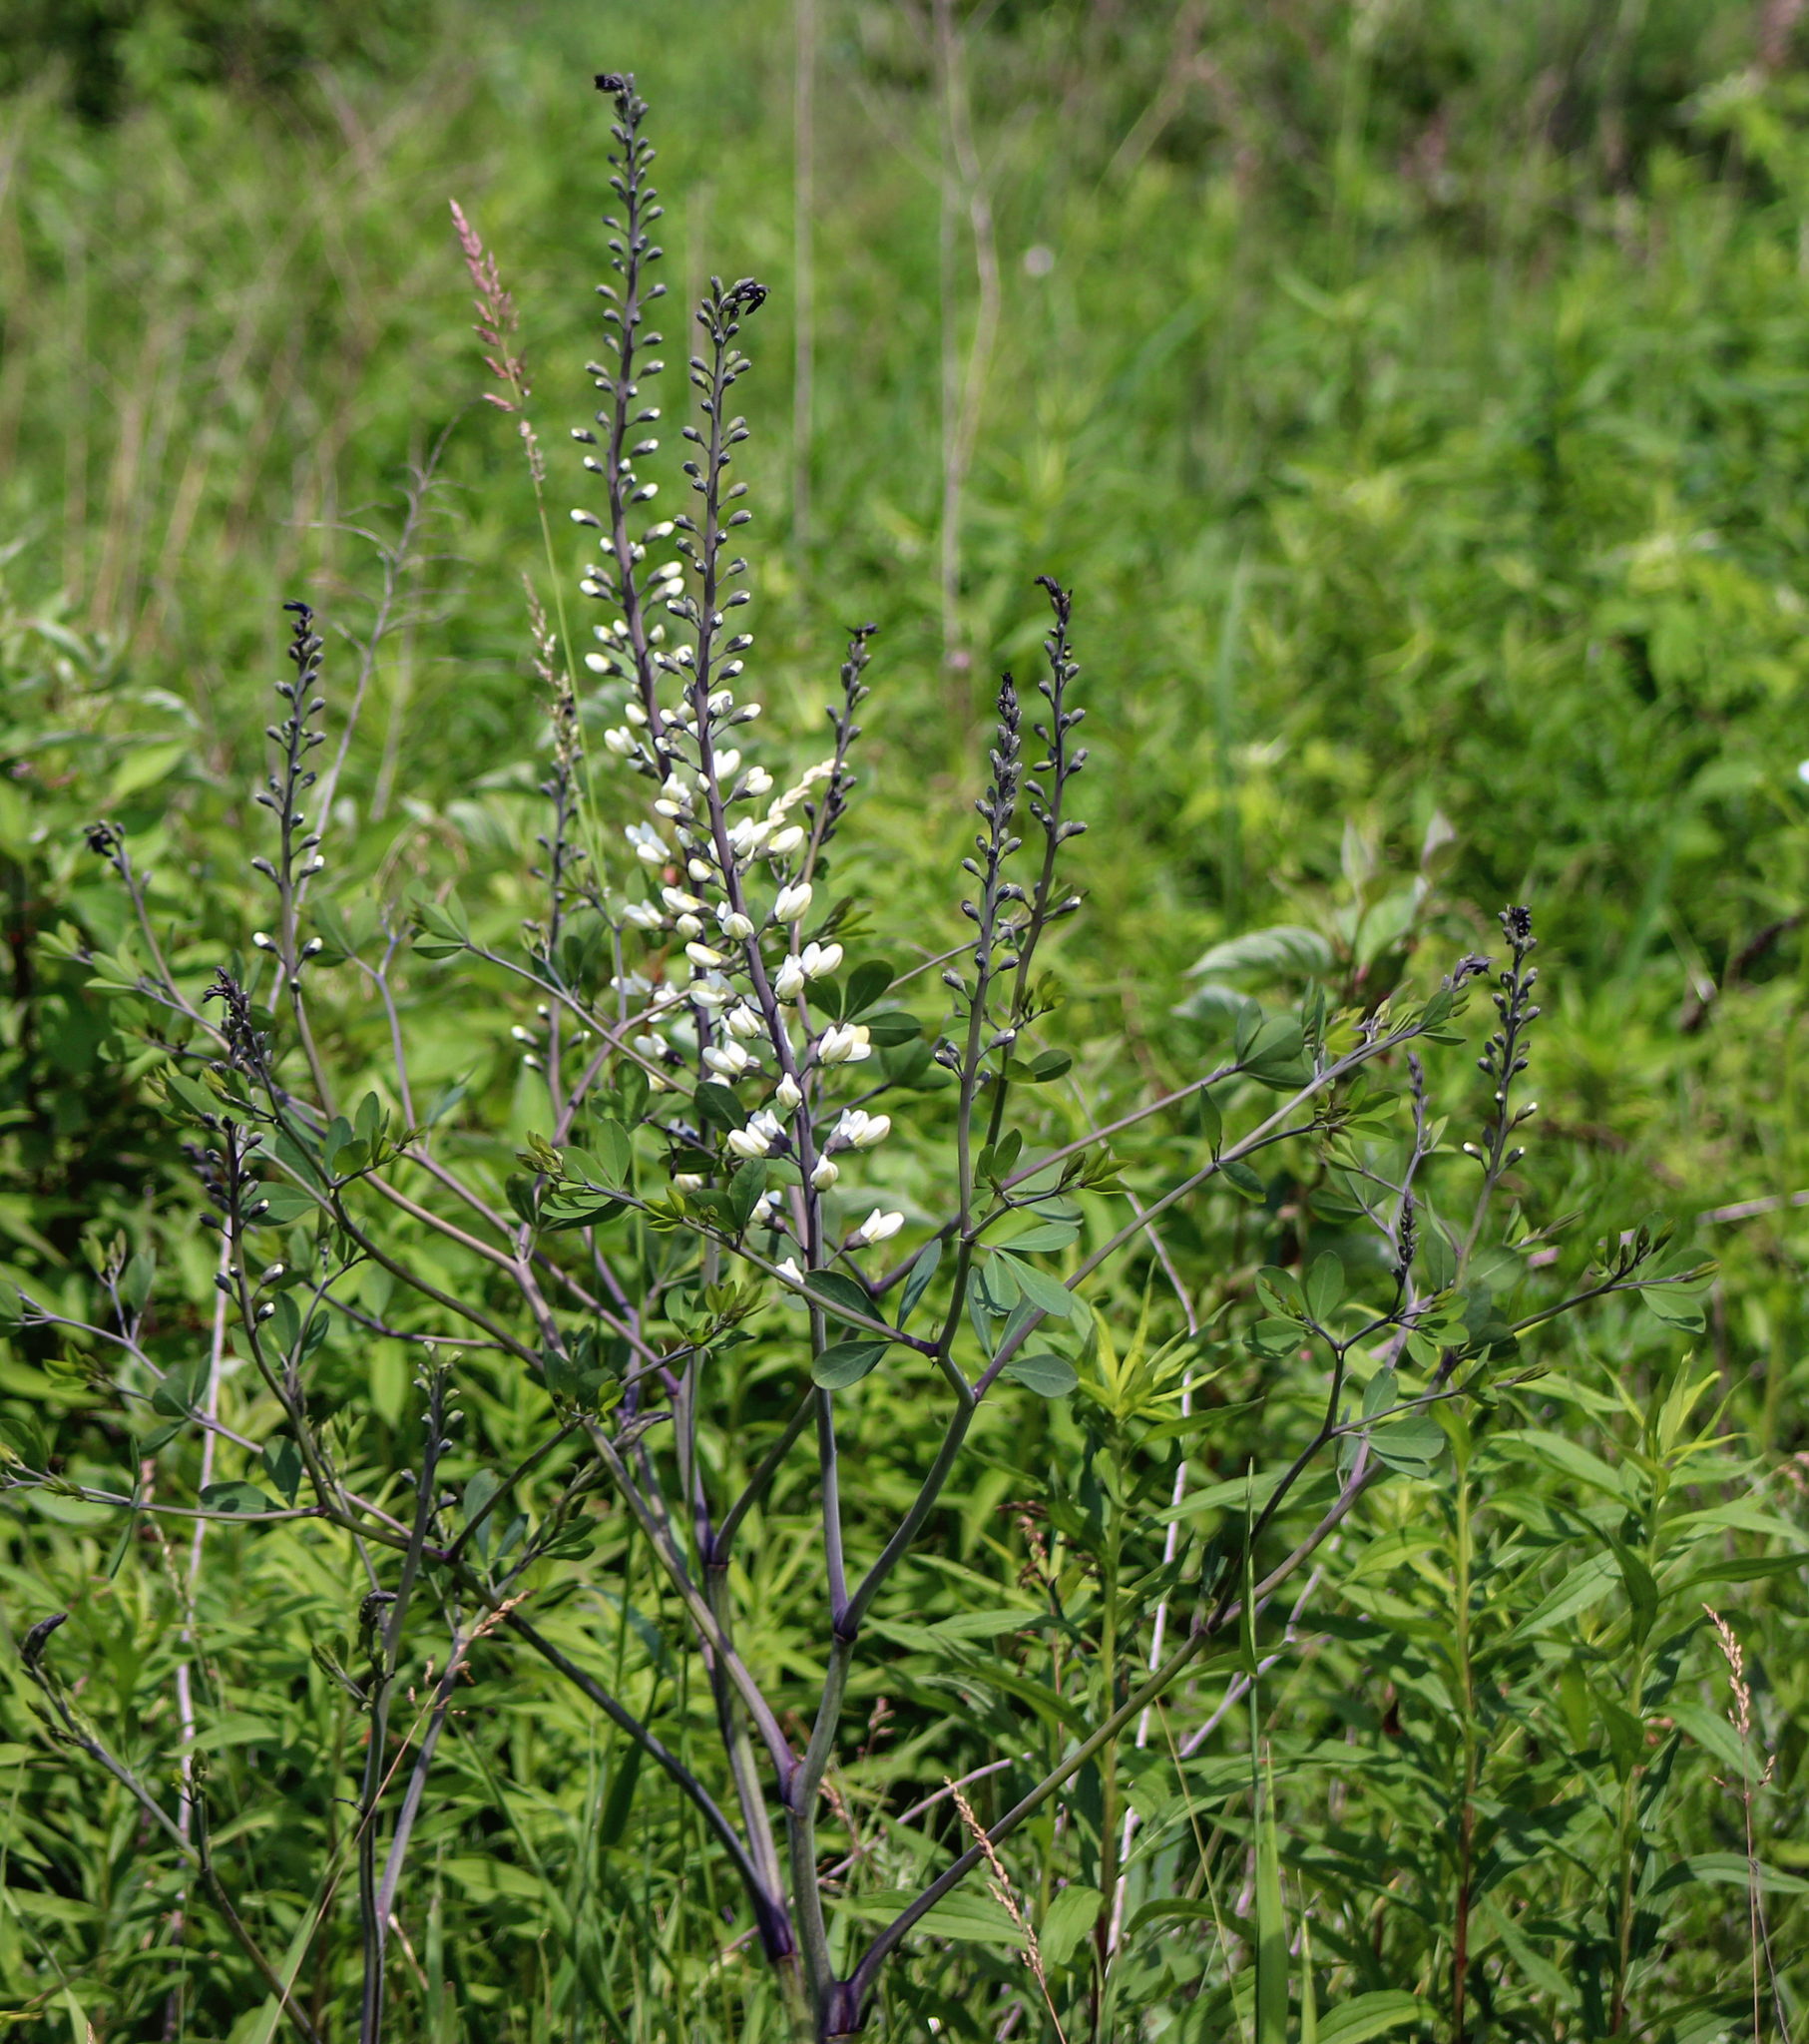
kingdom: Plantae
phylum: Tracheophyta
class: Magnoliopsida
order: Fabales
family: Fabaceae
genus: Baptisia
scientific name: Baptisia alba
